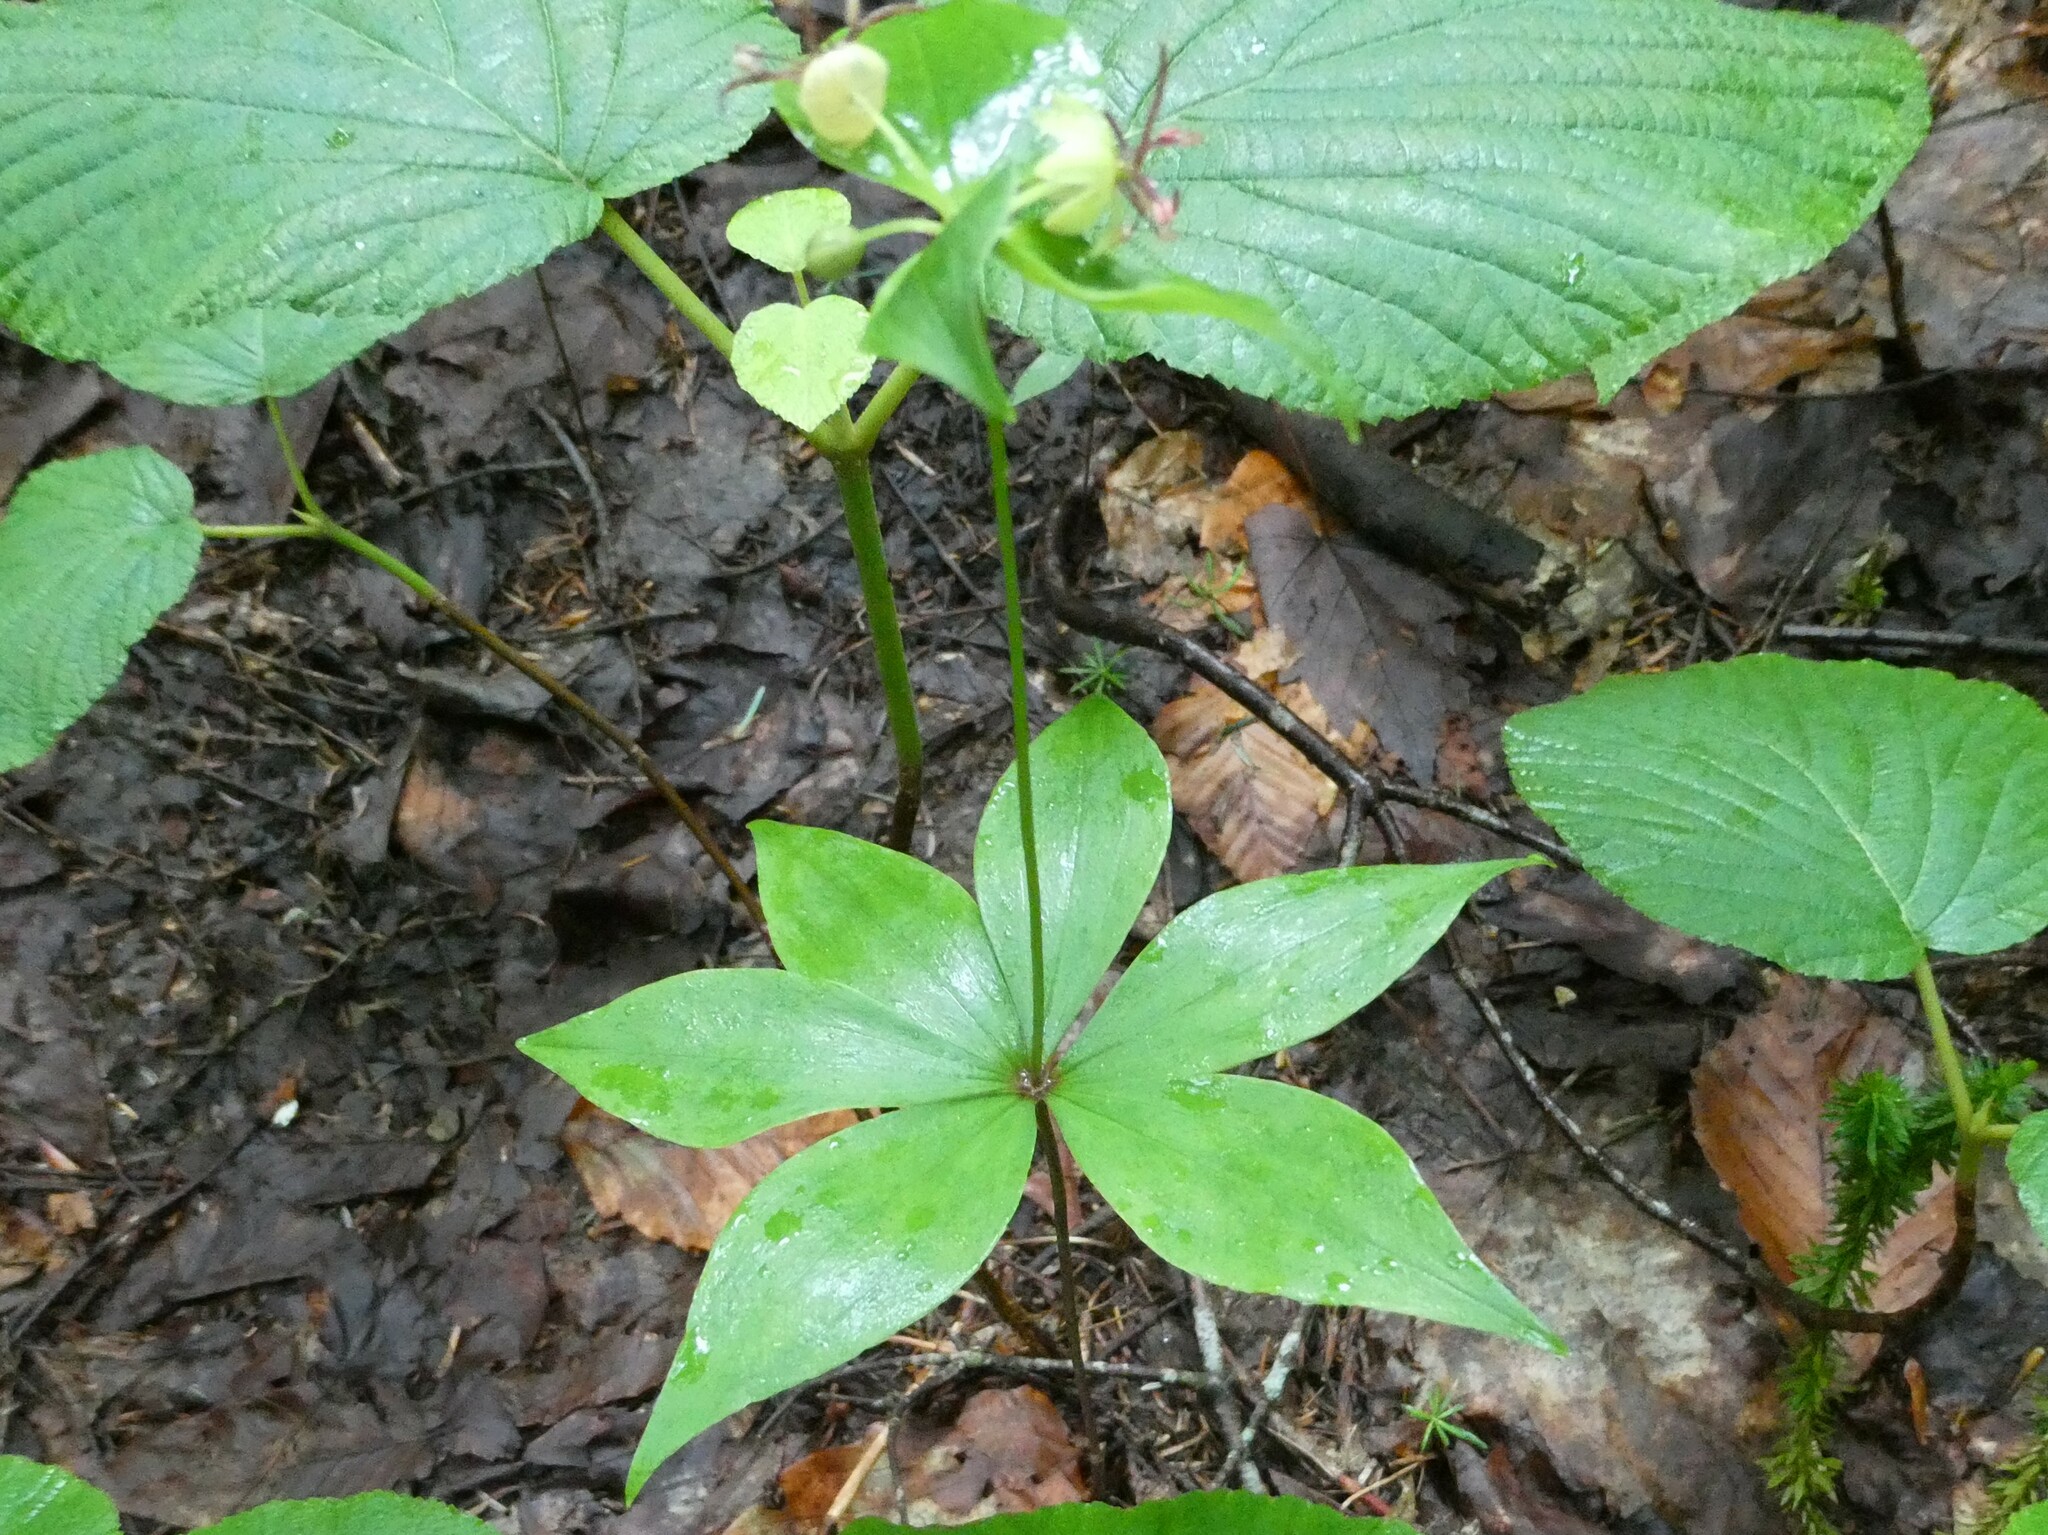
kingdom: Plantae
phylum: Tracheophyta
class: Liliopsida
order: Liliales
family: Liliaceae
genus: Medeola
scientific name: Medeola virginiana
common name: Indian cucumber-root
